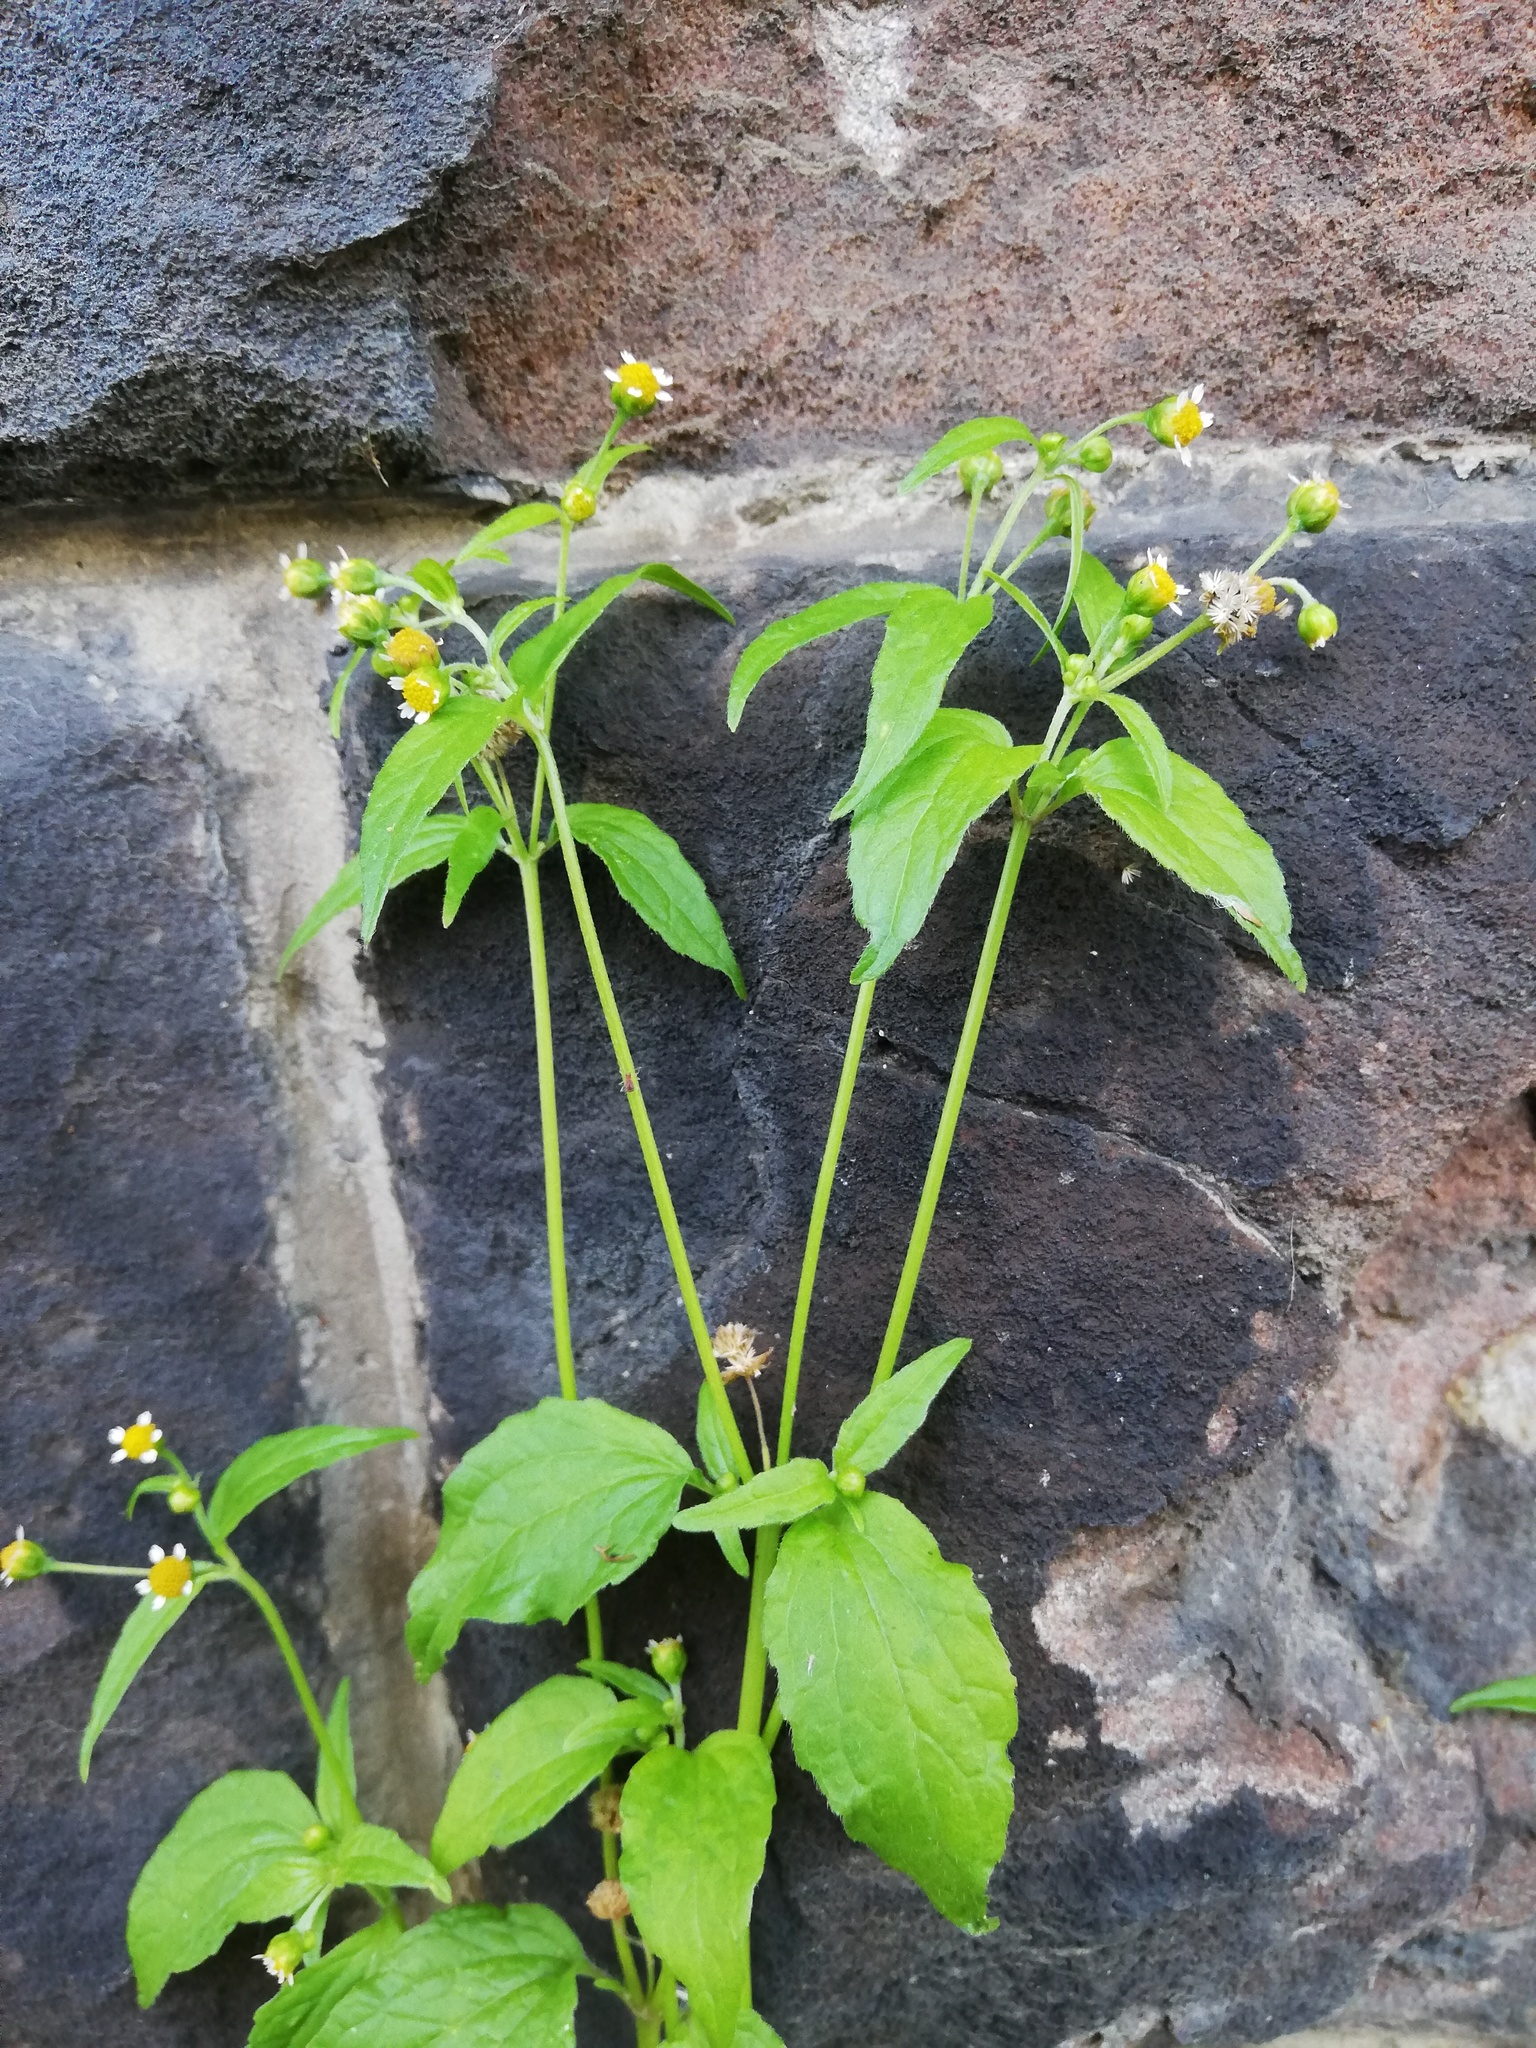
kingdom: Plantae
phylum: Tracheophyta
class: Magnoliopsida
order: Asterales
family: Asteraceae
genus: Galinsoga
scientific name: Galinsoga parviflora
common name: Gallant soldier
